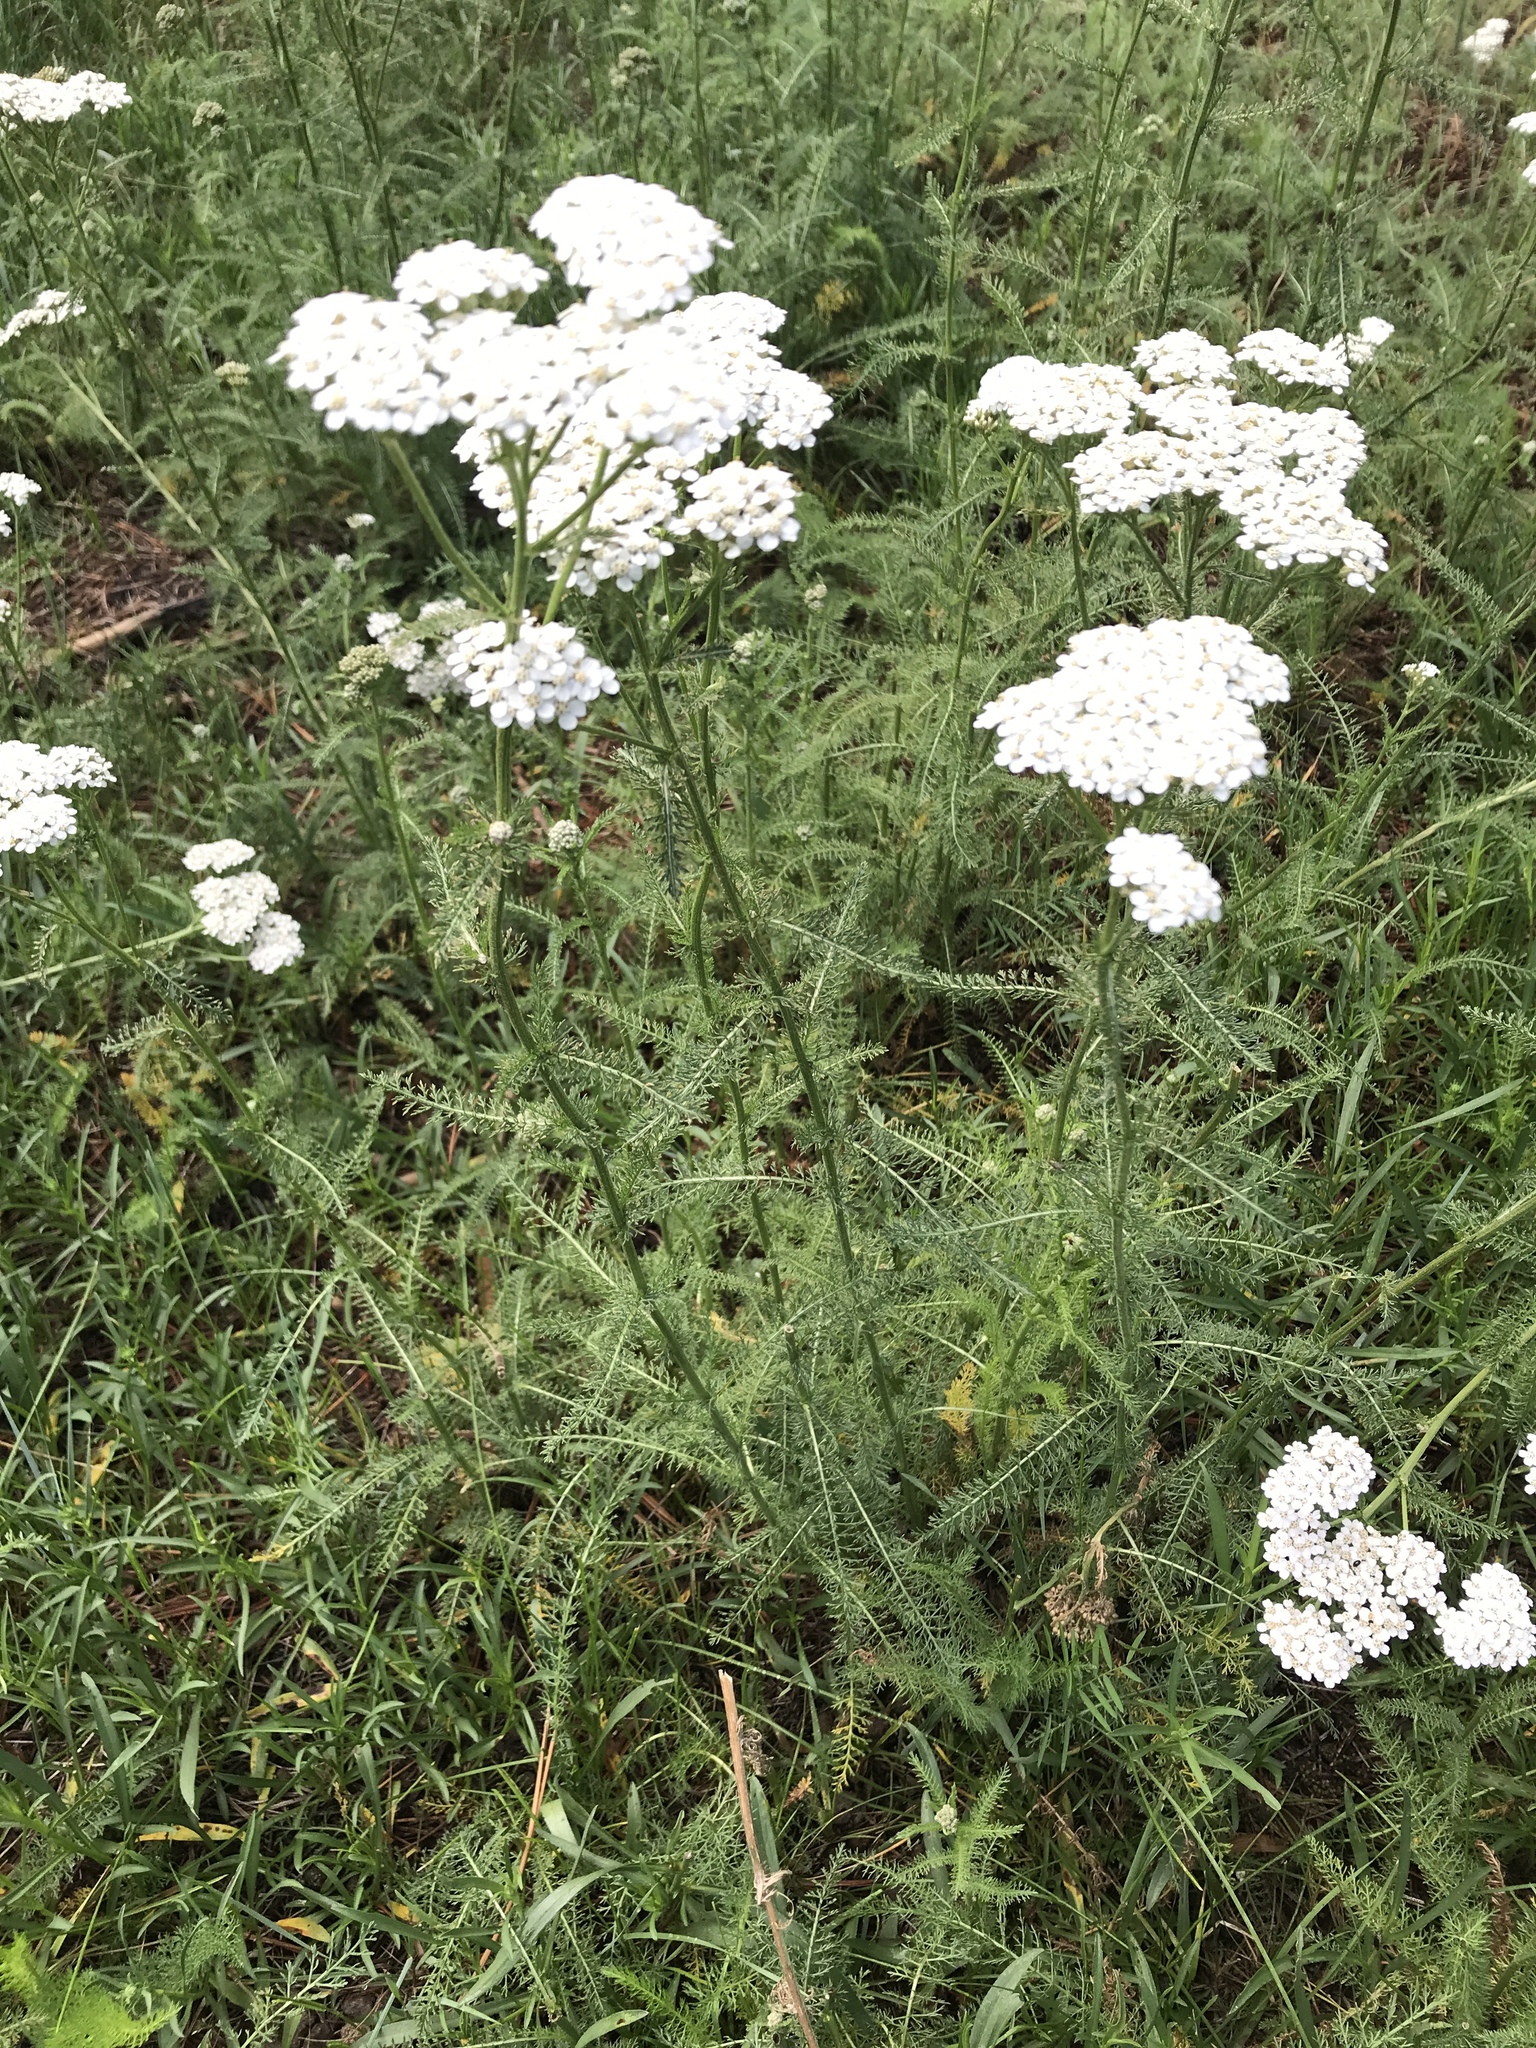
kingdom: Plantae
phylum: Tracheophyta
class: Magnoliopsida
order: Asterales
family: Asteraceae
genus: Achillea
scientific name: Achillea millefolium
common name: Yarrow
